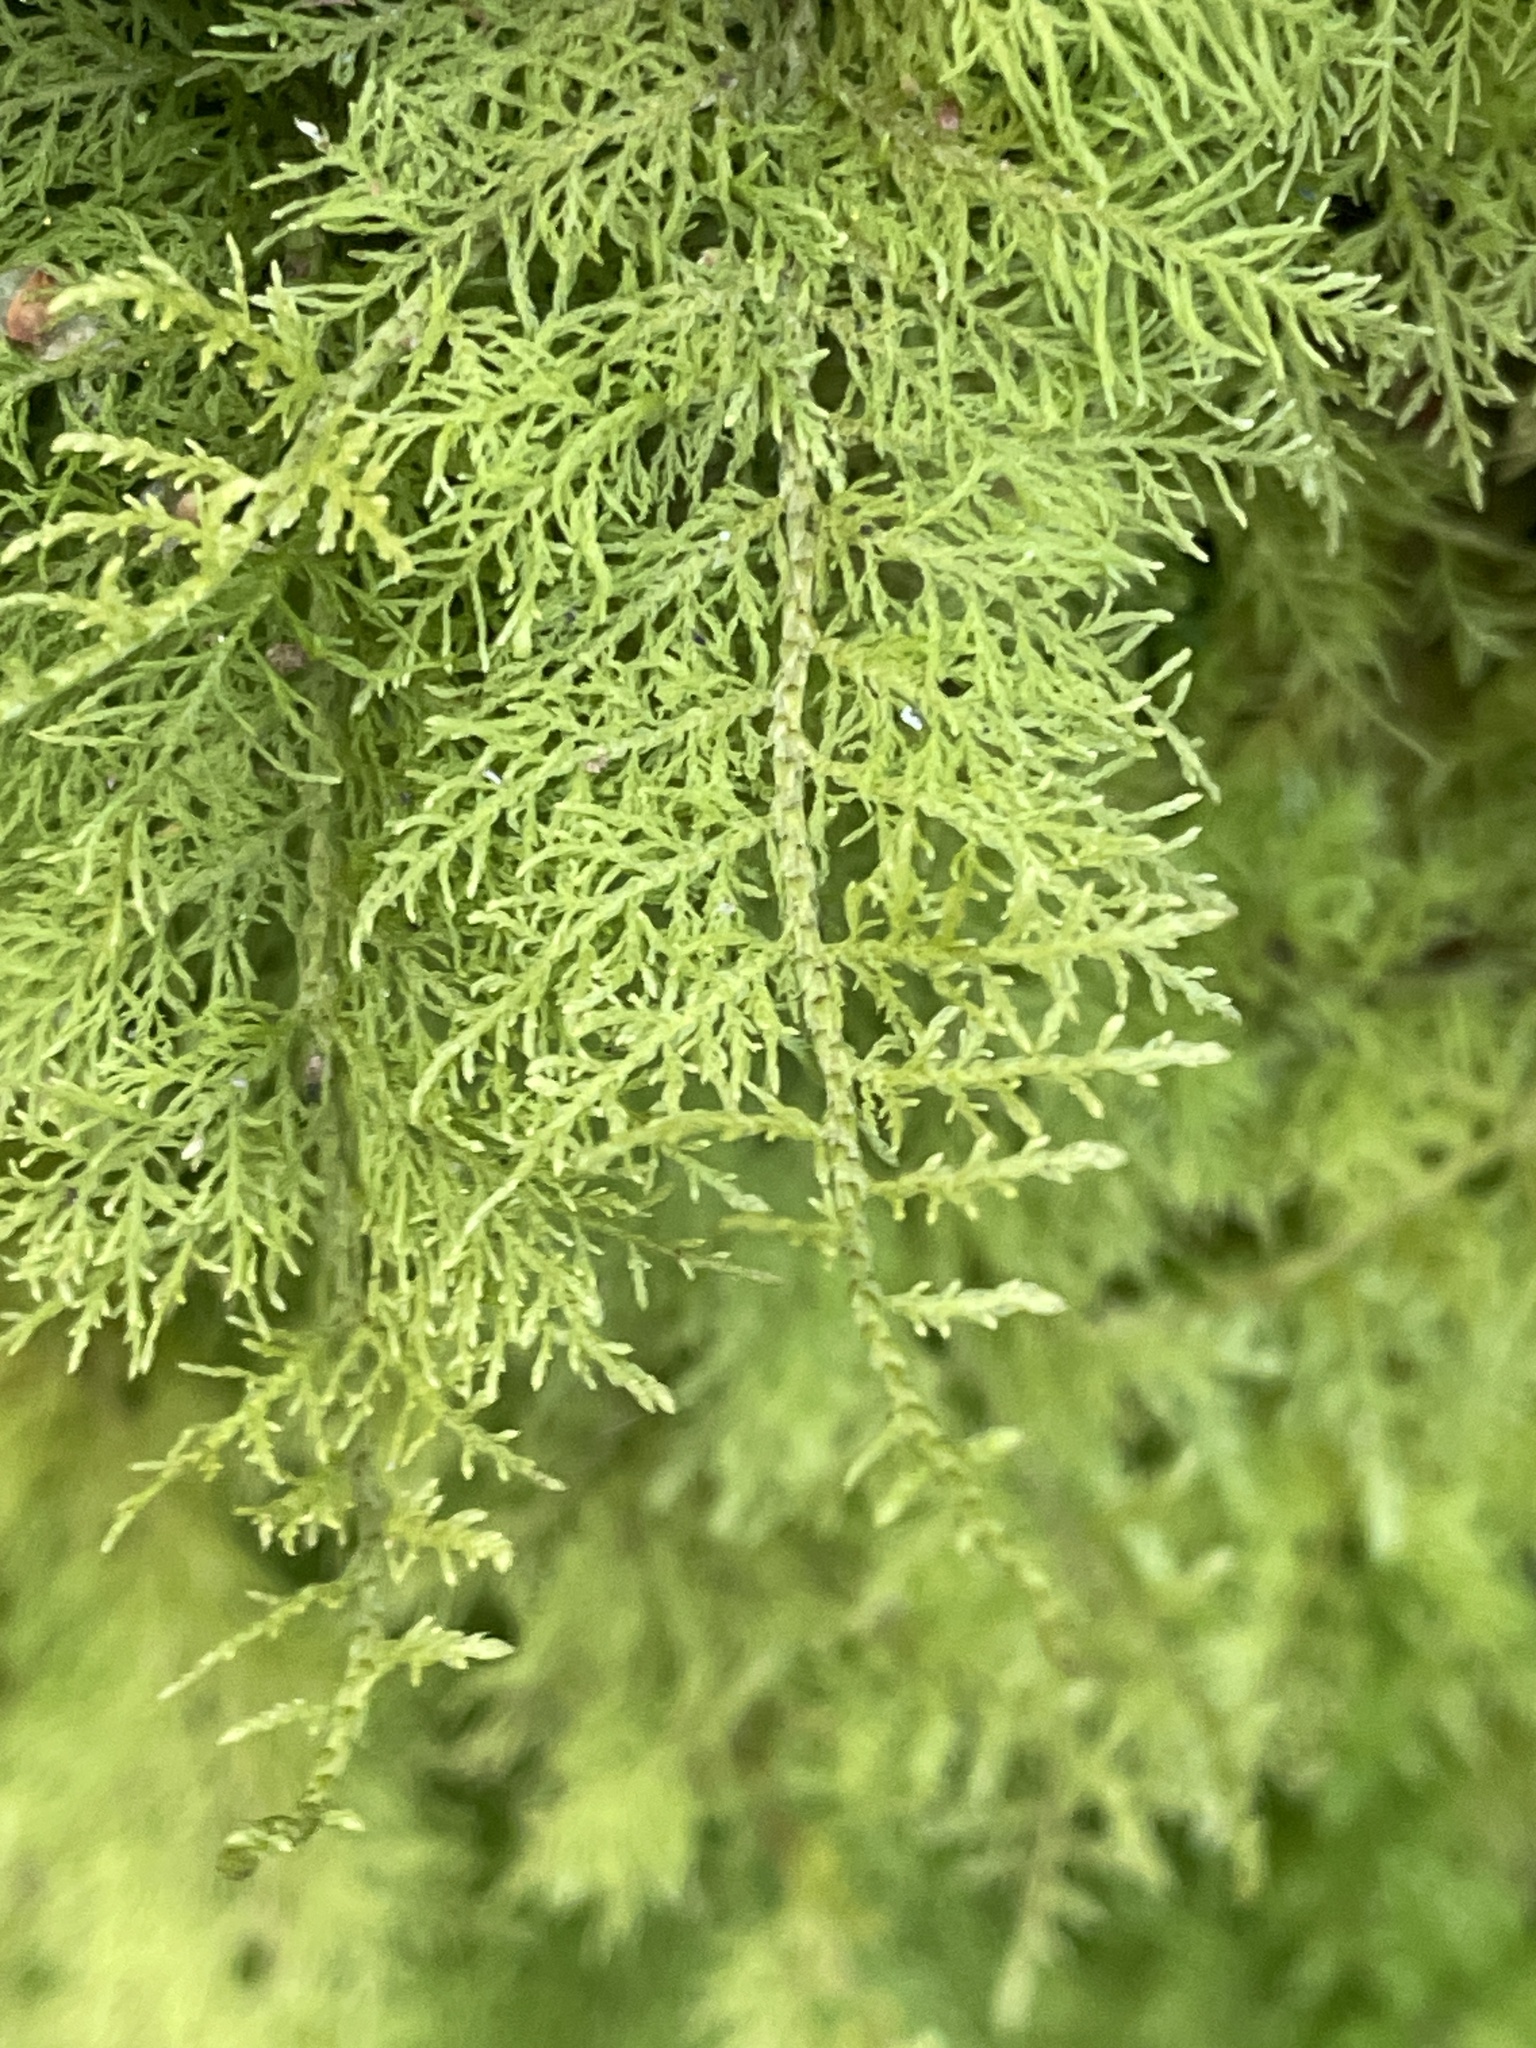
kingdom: Plantae
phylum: Bryophyta
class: Bryopsida
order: Hypnales
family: Thuidiaceae
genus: Thuidium
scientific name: Thuidium tamariscinum
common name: Common tamarisk-moss
